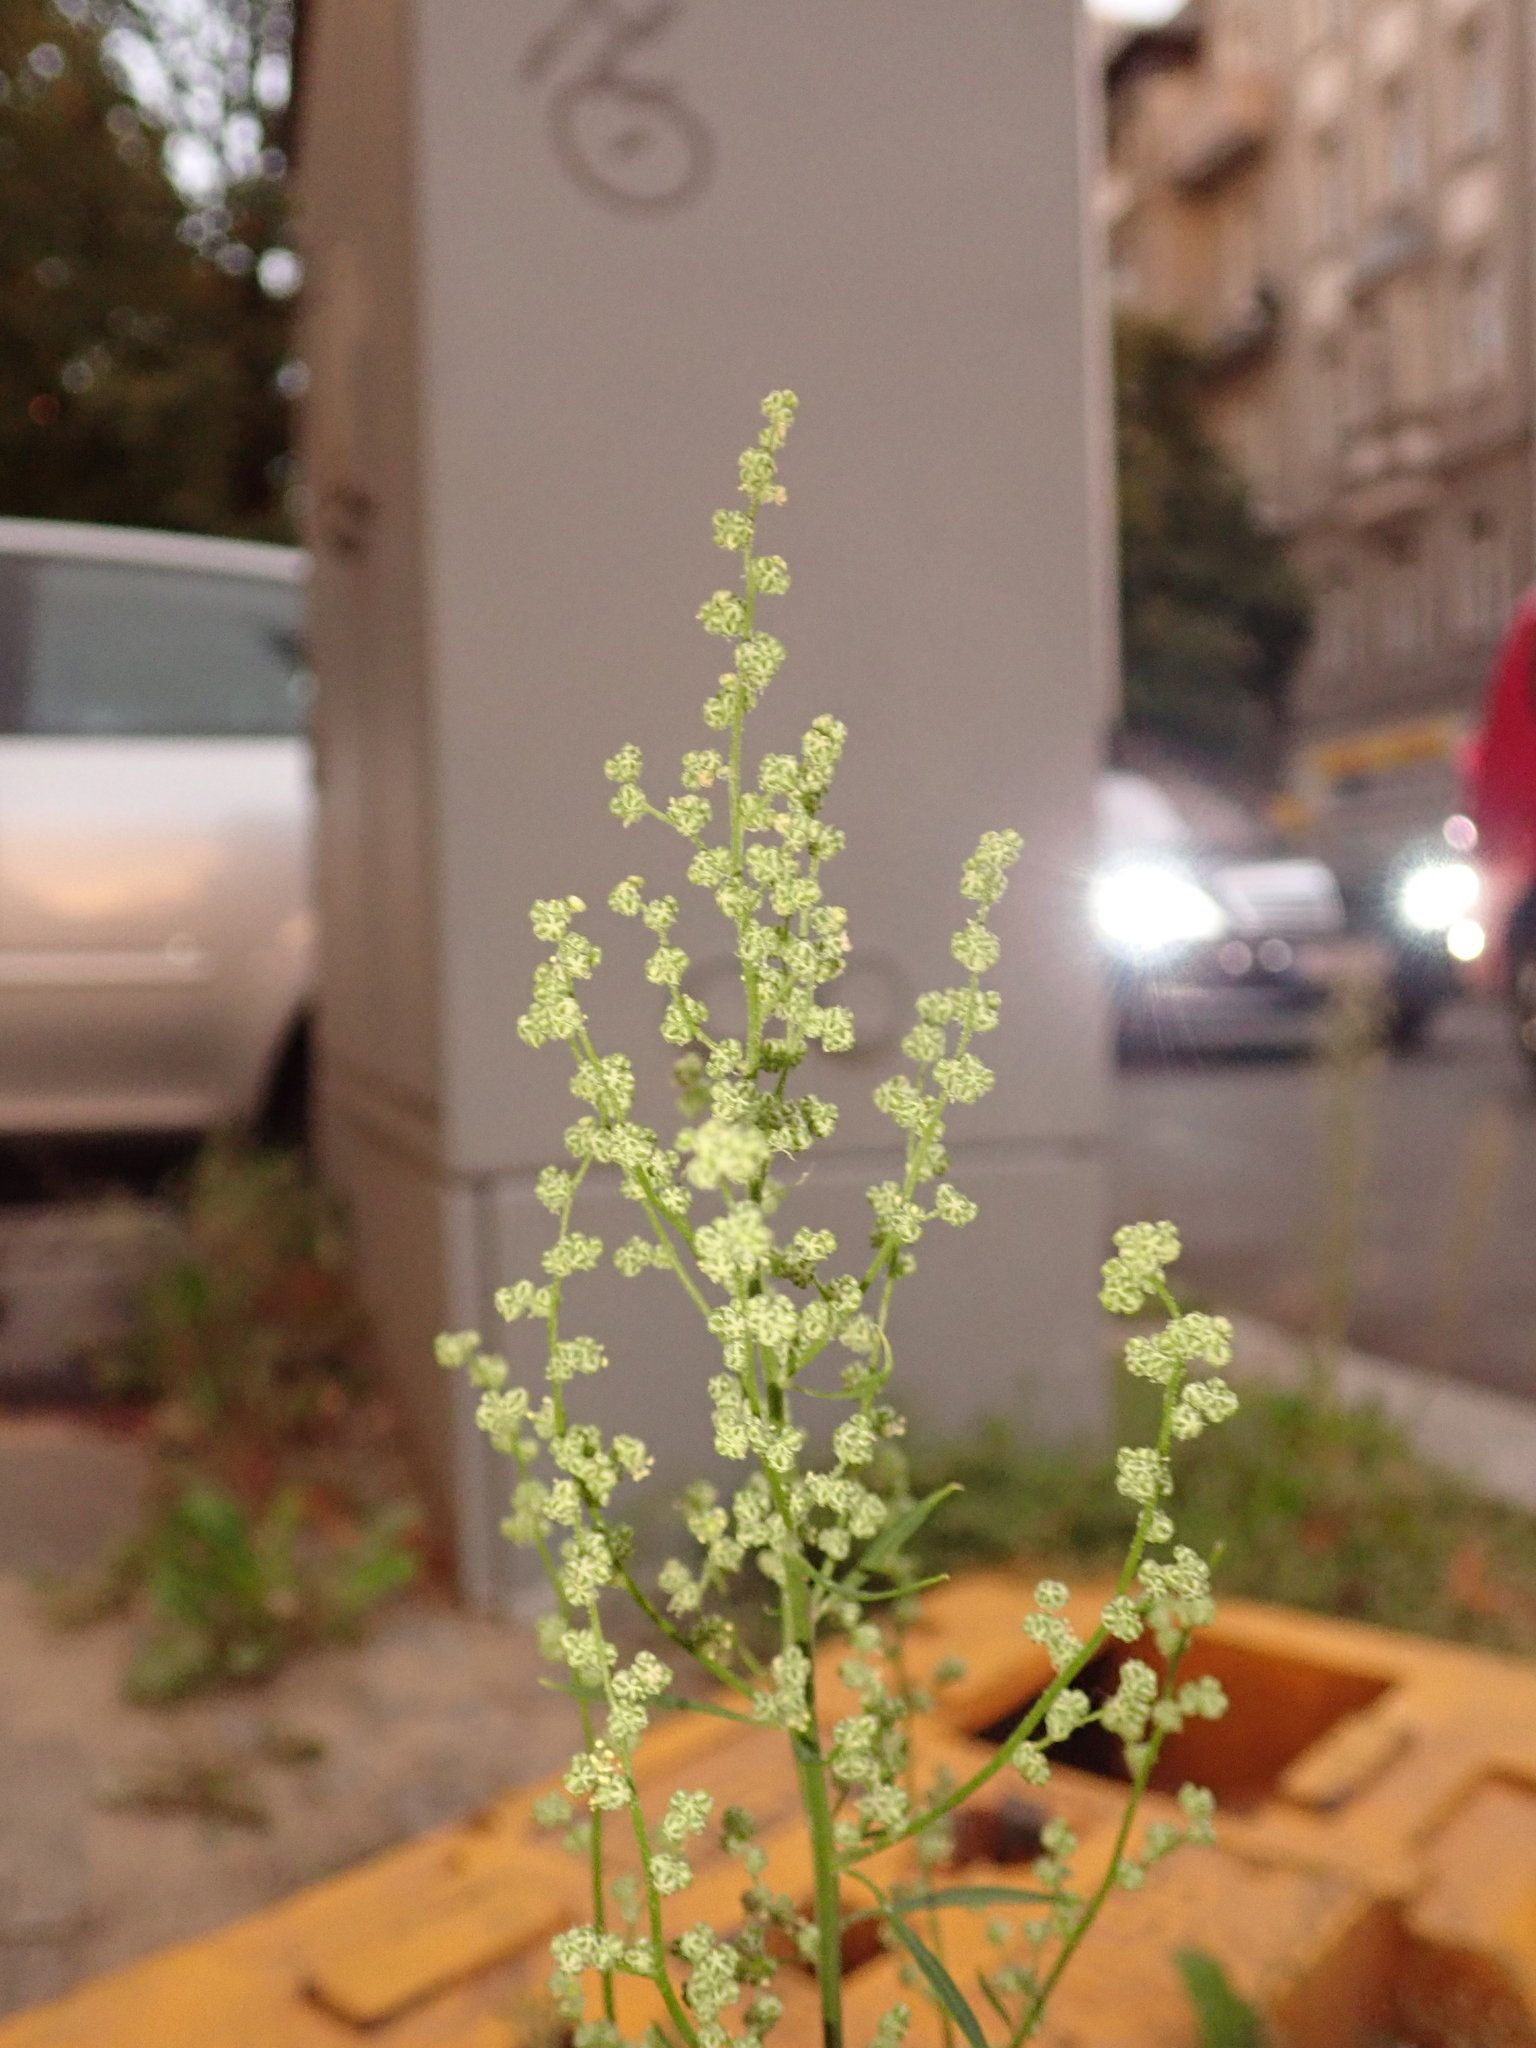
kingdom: Plantae
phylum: Tracheophyta
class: Magnoliopsida
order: Caryophyllales
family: Amaranthaceae
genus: Chenopodium
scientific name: Chenopodium album
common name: Fat-hen
